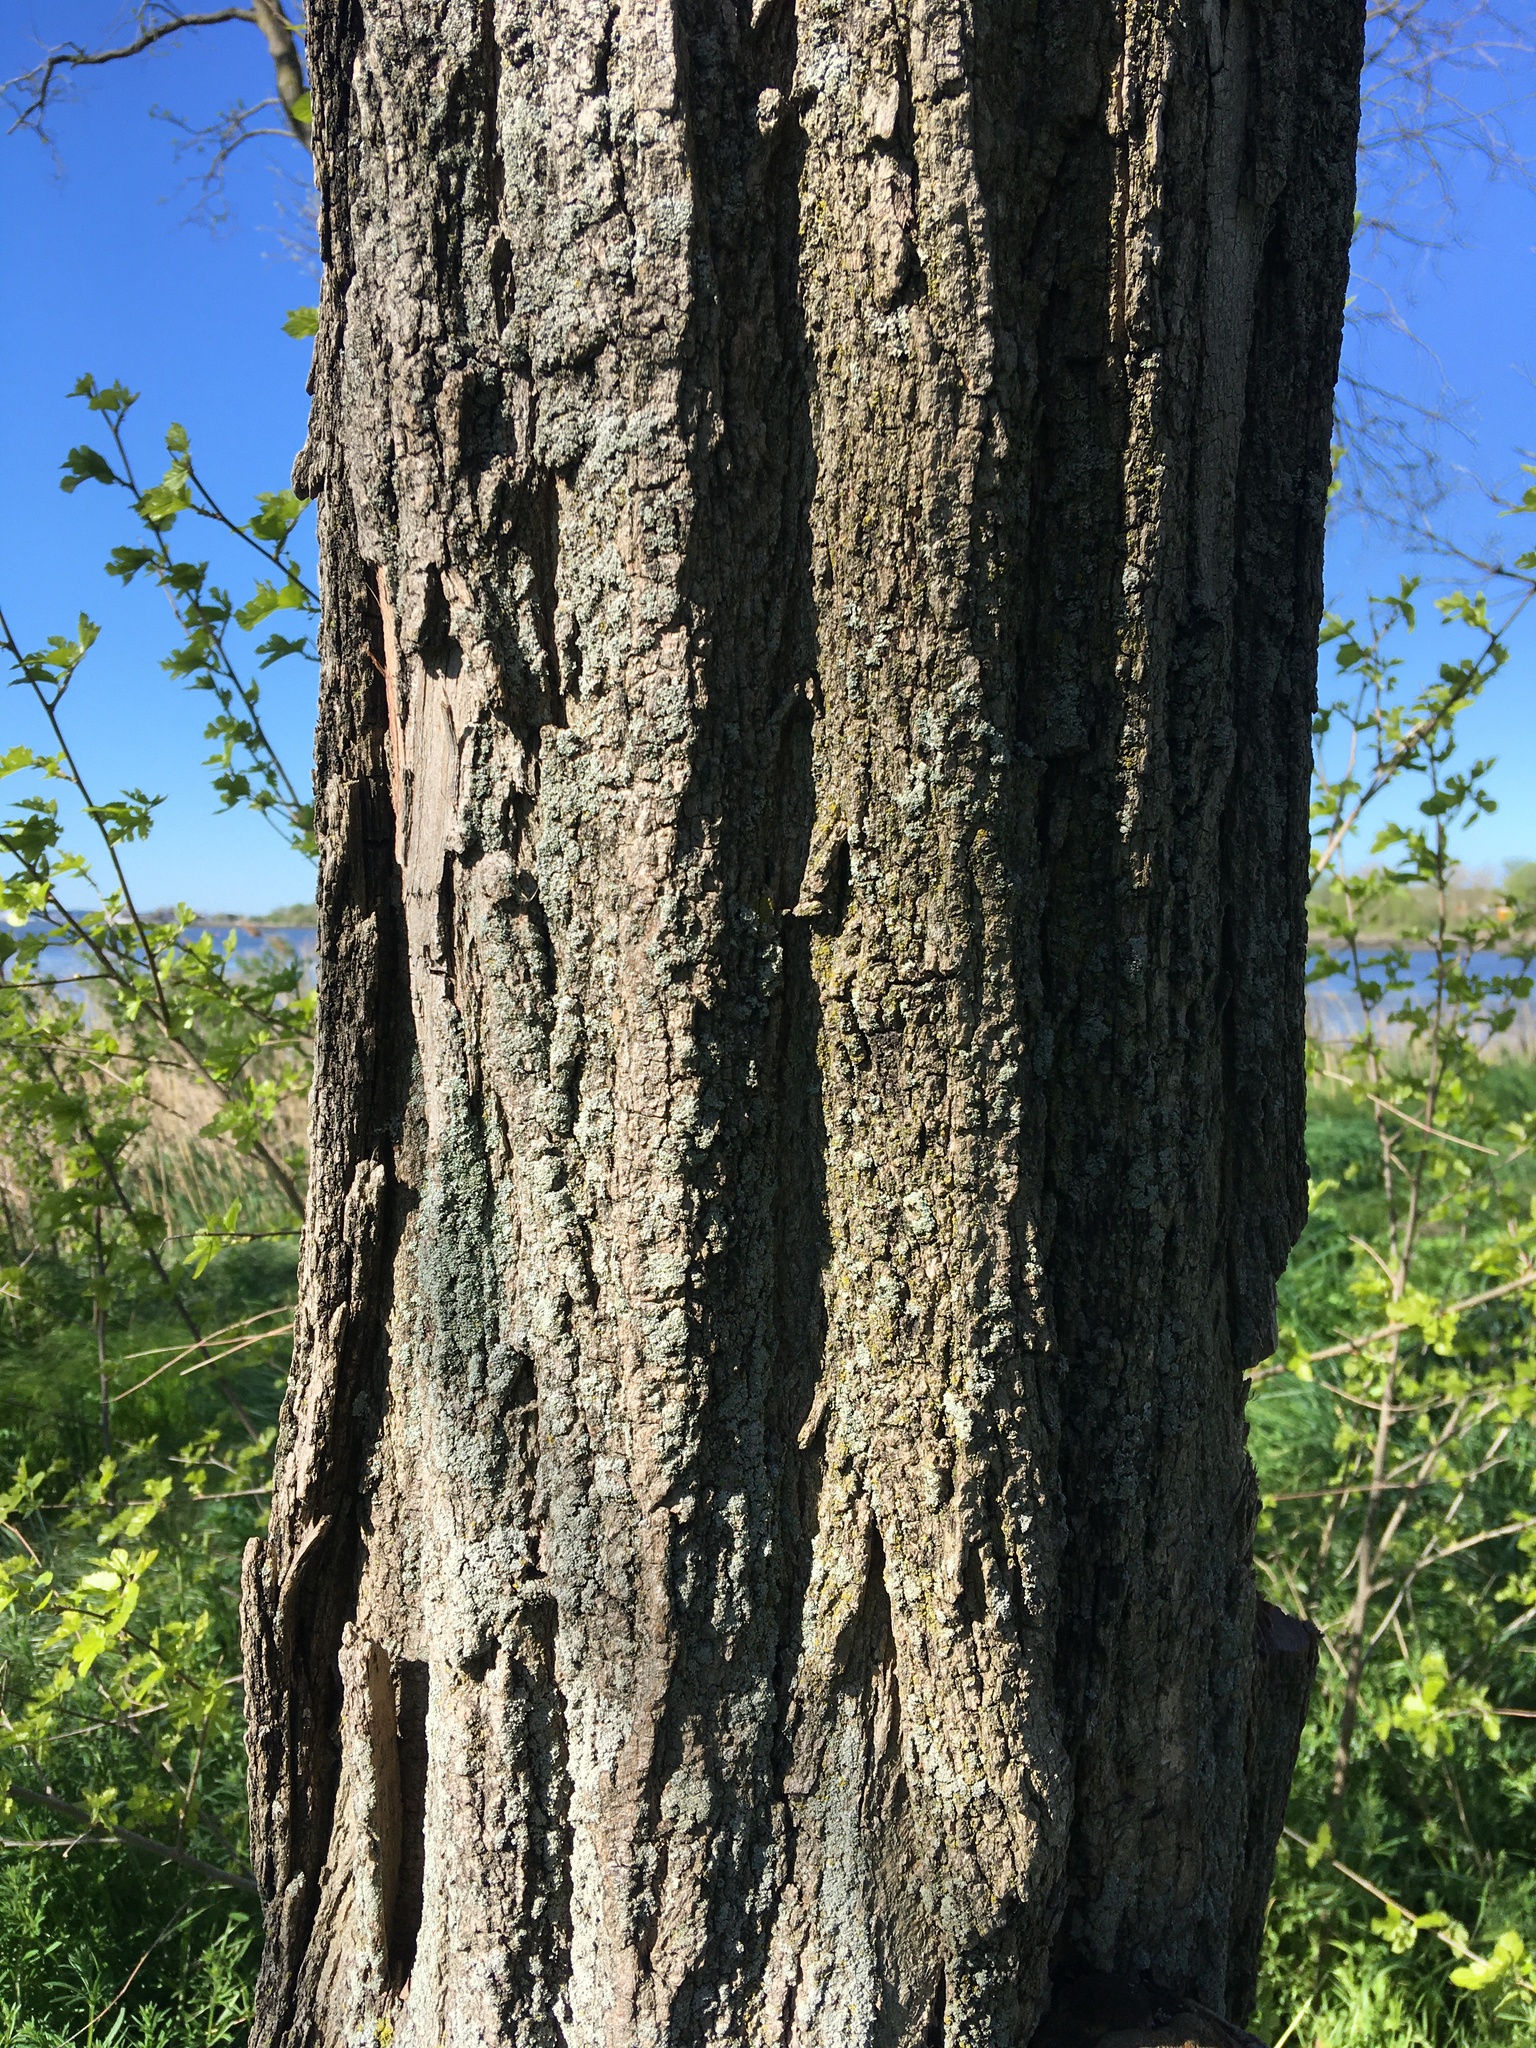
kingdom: Plantae
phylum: Tracheophyta
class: Magnoliopsida
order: Fabales
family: Fabaceae
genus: Robinia
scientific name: Robinia pseudoacacia
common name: Black locust
